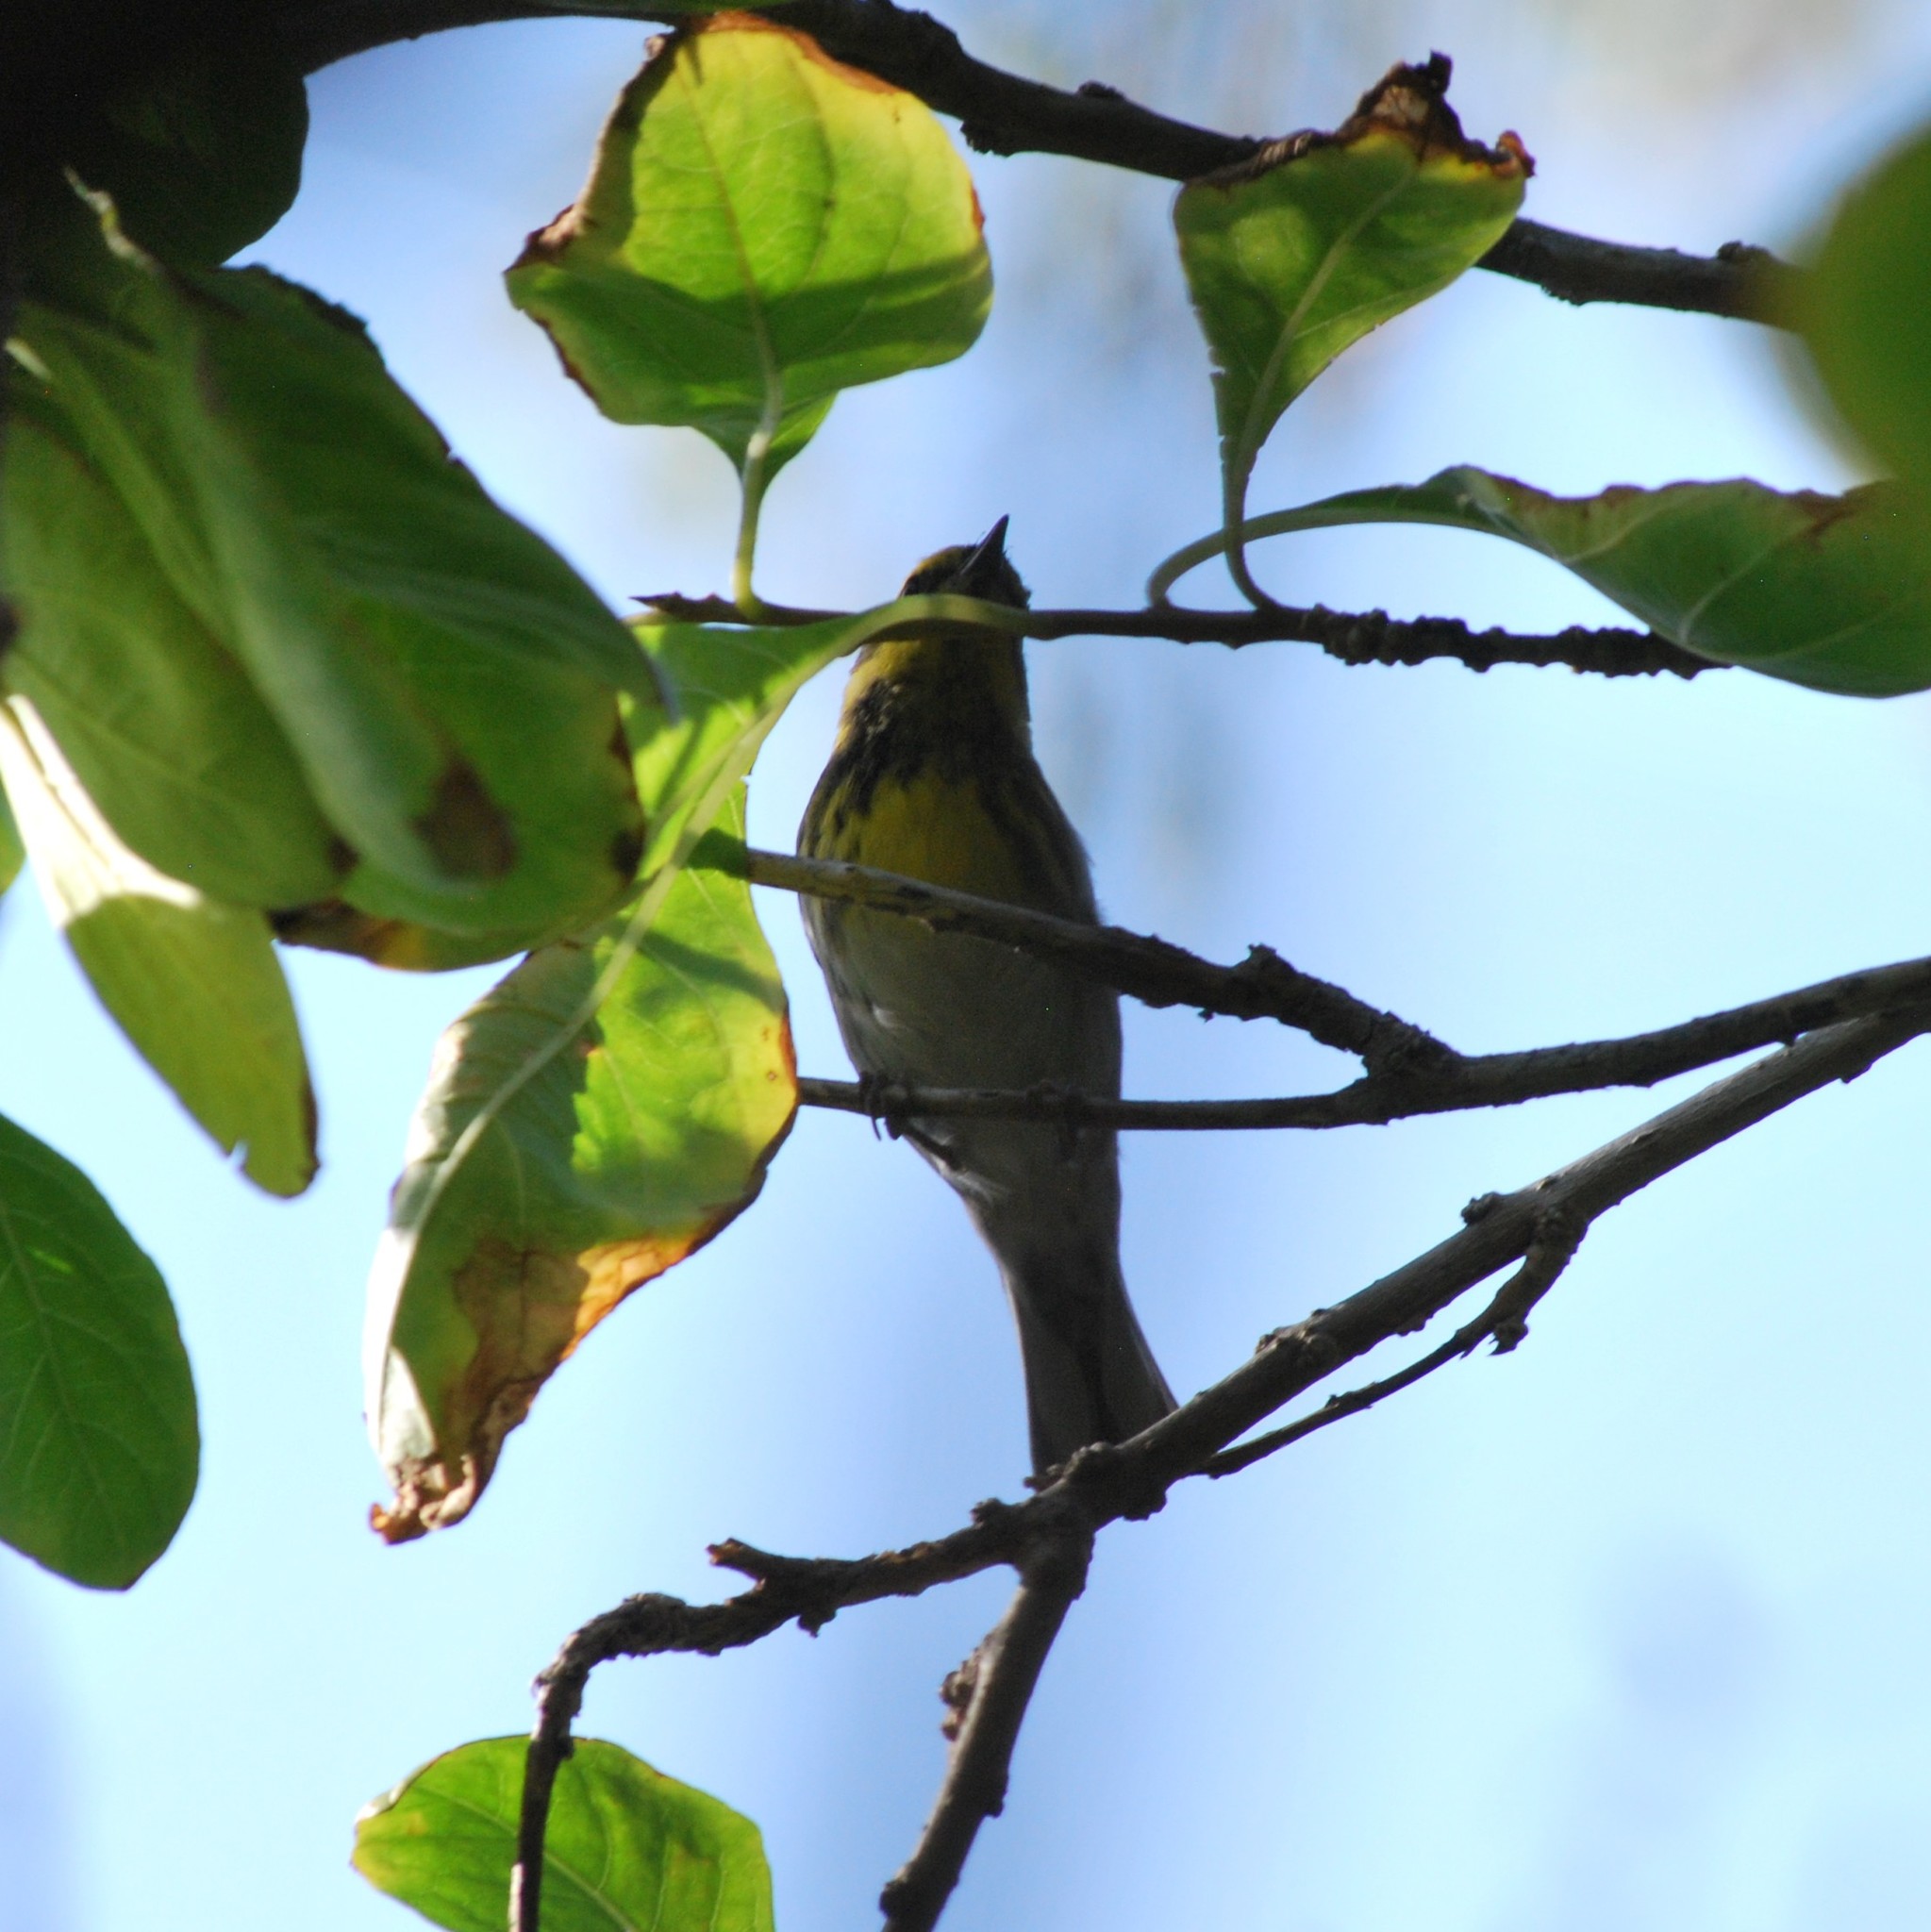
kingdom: Animalia
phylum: Chordata
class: Aves
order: Passeriformes
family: Parulidae
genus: Setophaga
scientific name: Setophaga townsendi
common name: Townsend's warbler
